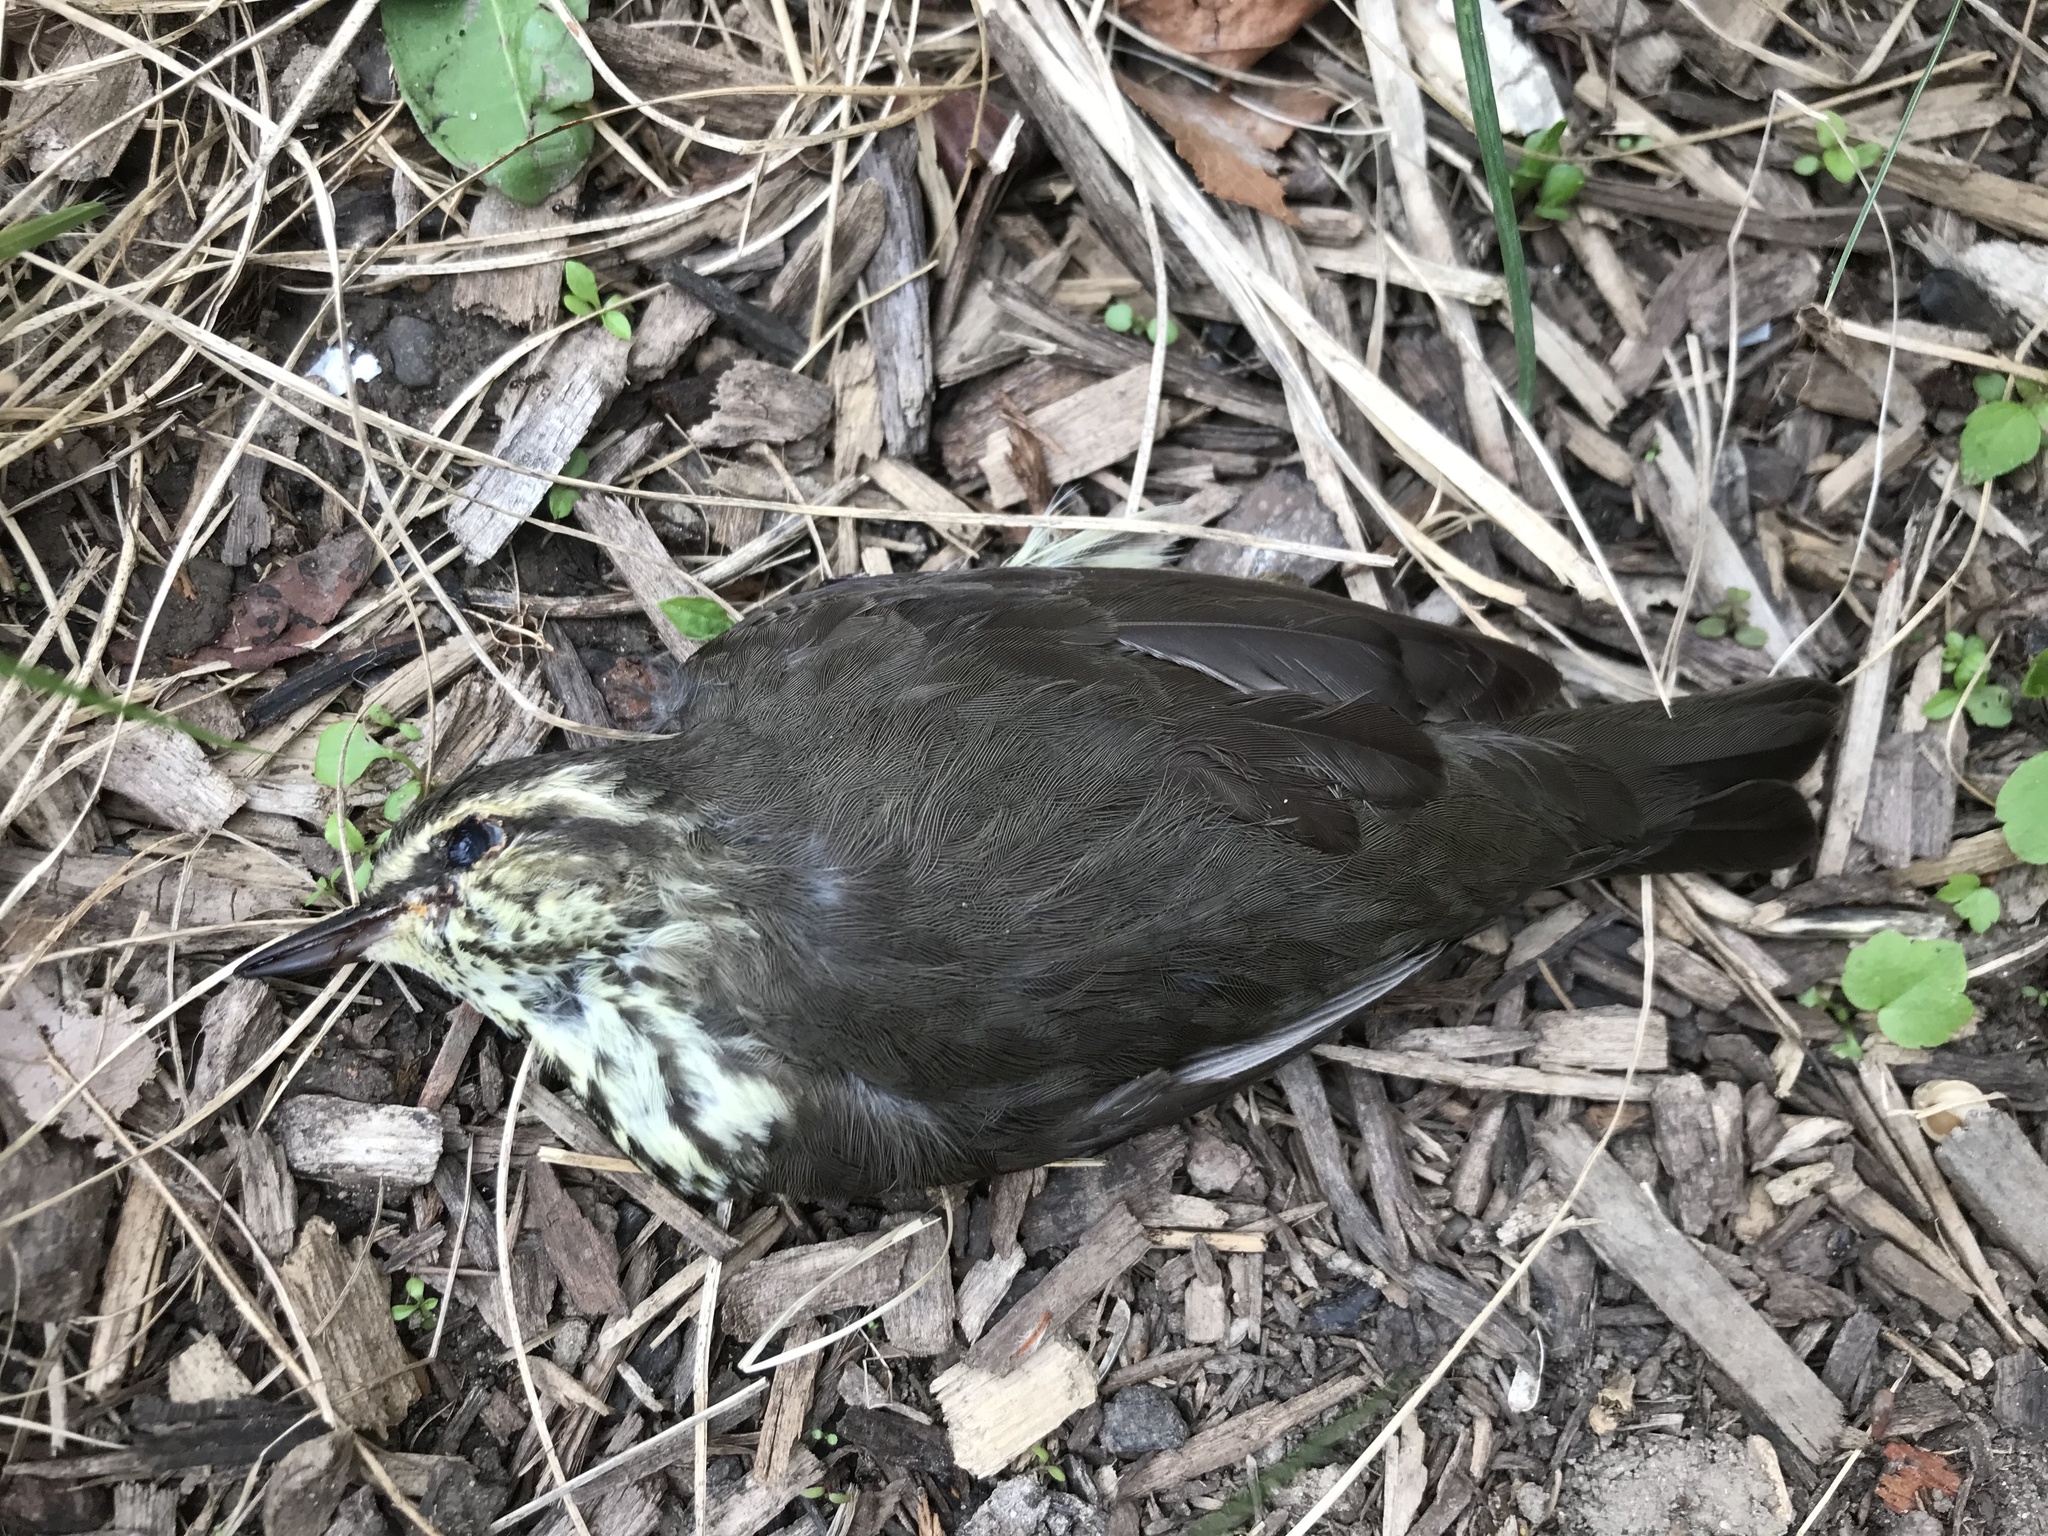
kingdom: Animalia
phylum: Chordata
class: Aves
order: Passeriformes
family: Parulidae
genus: Parkesia
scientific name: Parkesia noveboracensis
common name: Northern waterthrush
